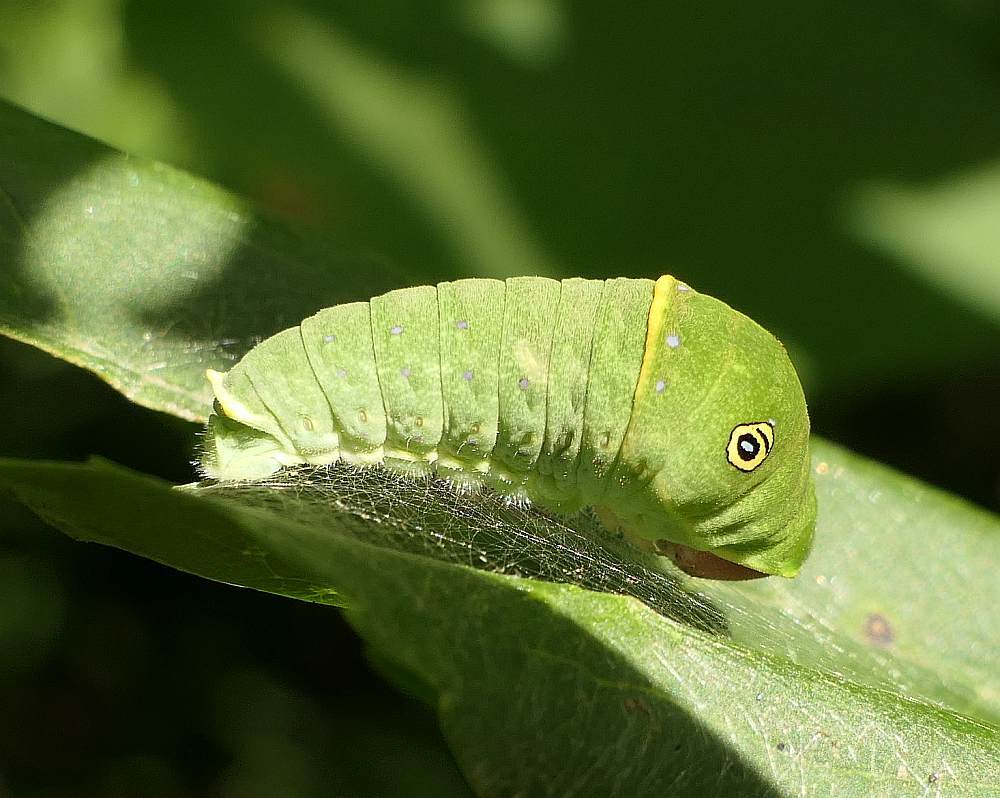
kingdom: Animalia
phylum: Arthropoda
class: Insecta
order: Lepidoptera
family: Papilionidae
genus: Papilio
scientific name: Papilio canadensis
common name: Canadian tiger swallowtail
